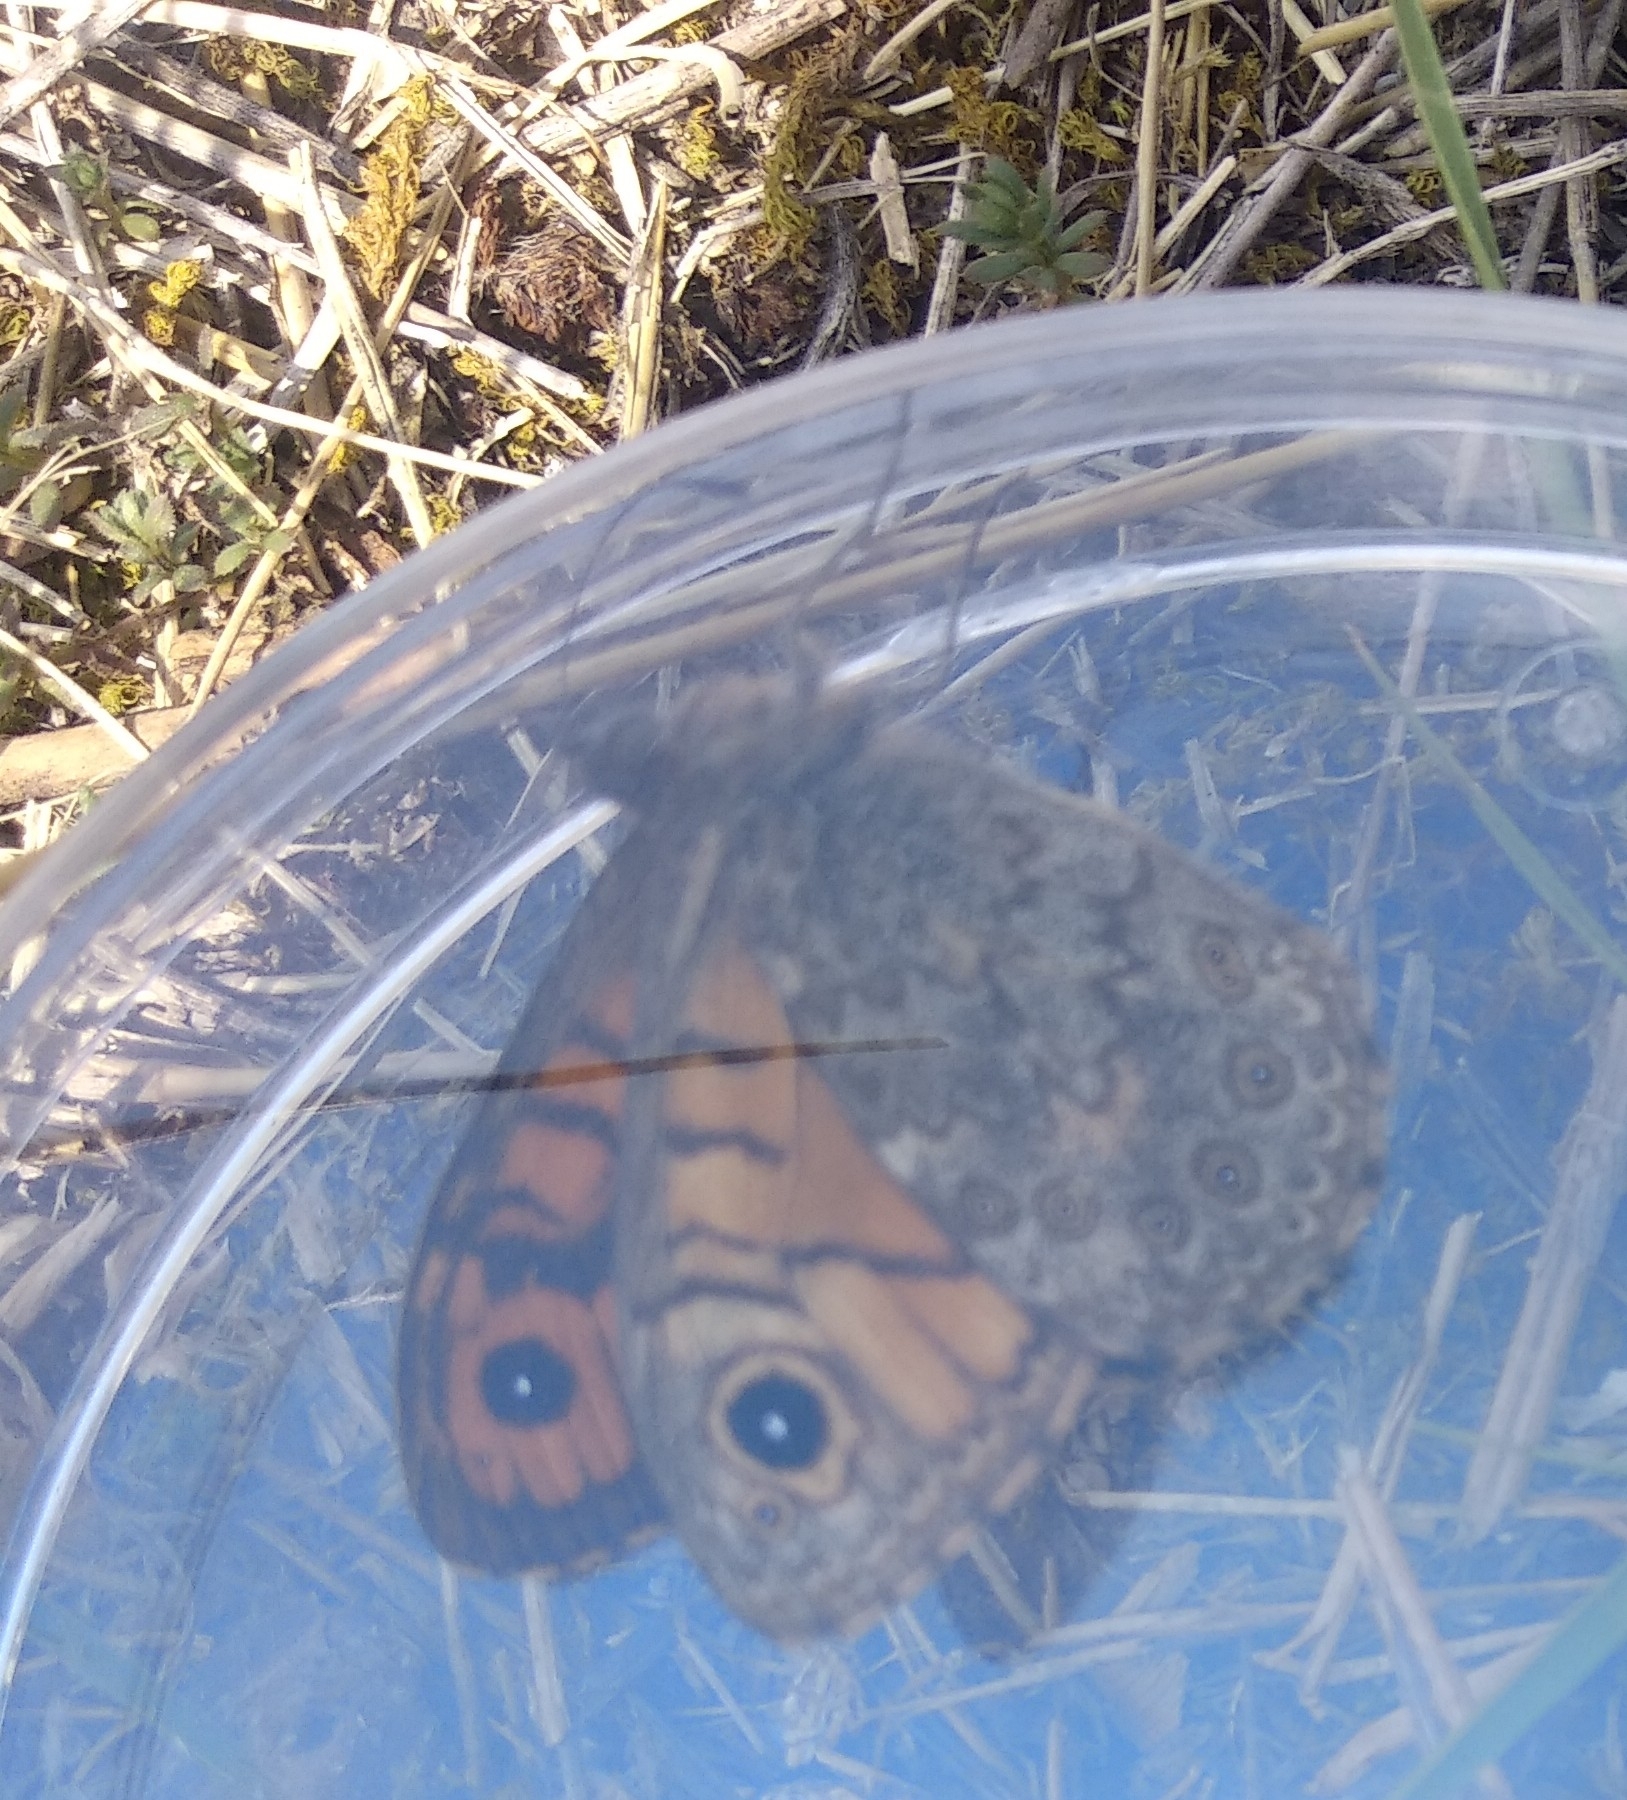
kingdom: Animalia
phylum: Arthropoda
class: Insecta
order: Lepidoptera
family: Nymphalidae
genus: Pararge
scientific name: Pararge Lasiommata megera
